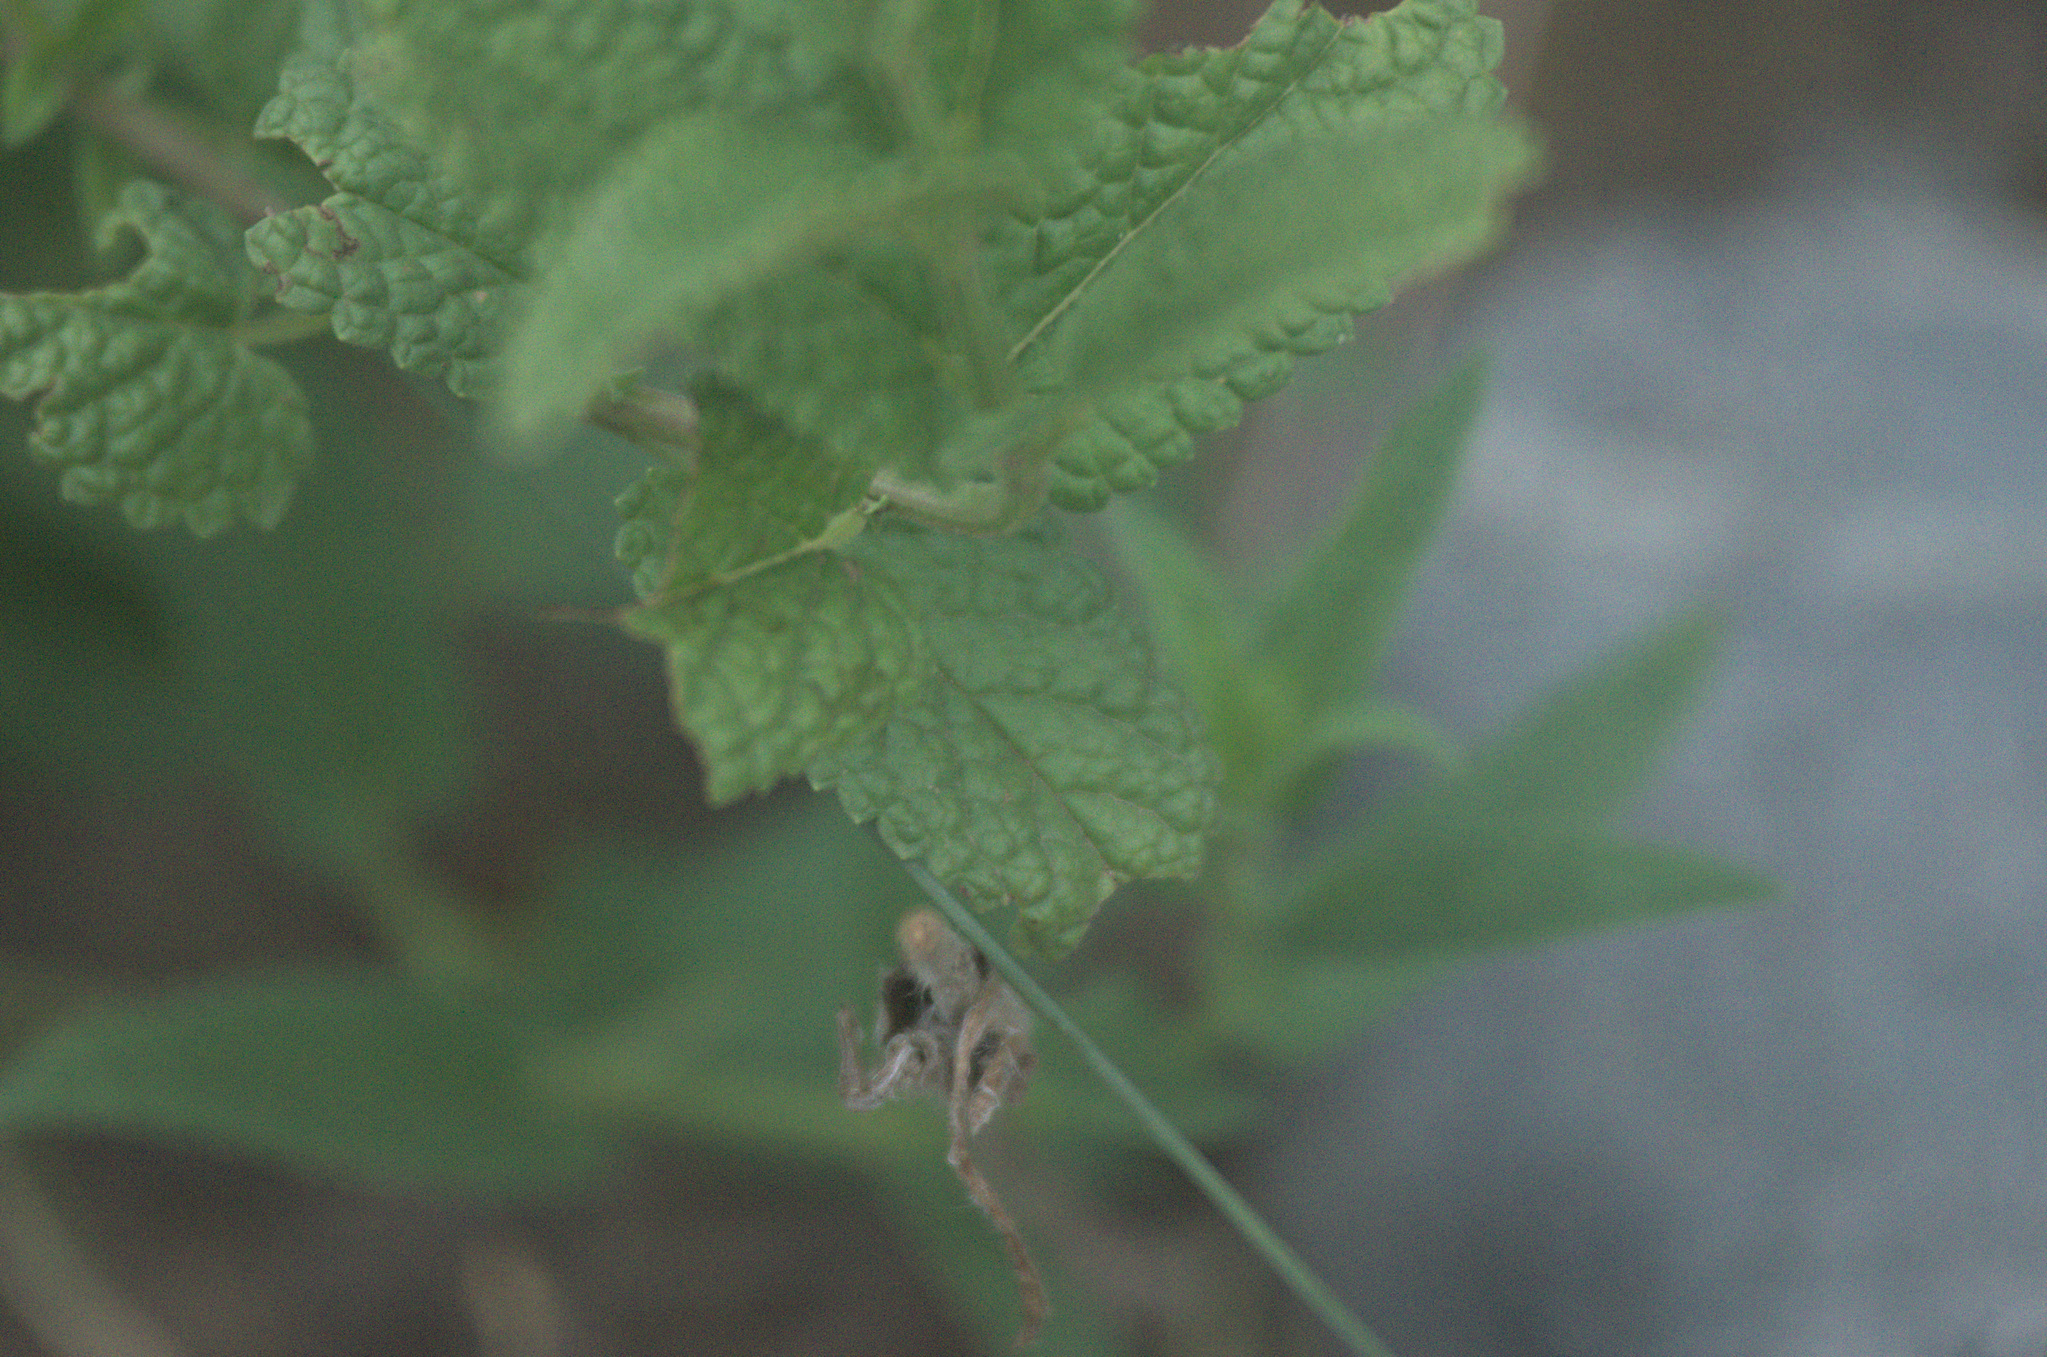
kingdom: Plantae
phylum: Tracheophyta
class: Magnoliopsida
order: Lamiales
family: Lamiaceae
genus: Nepeta
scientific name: Nepeta sibirica
